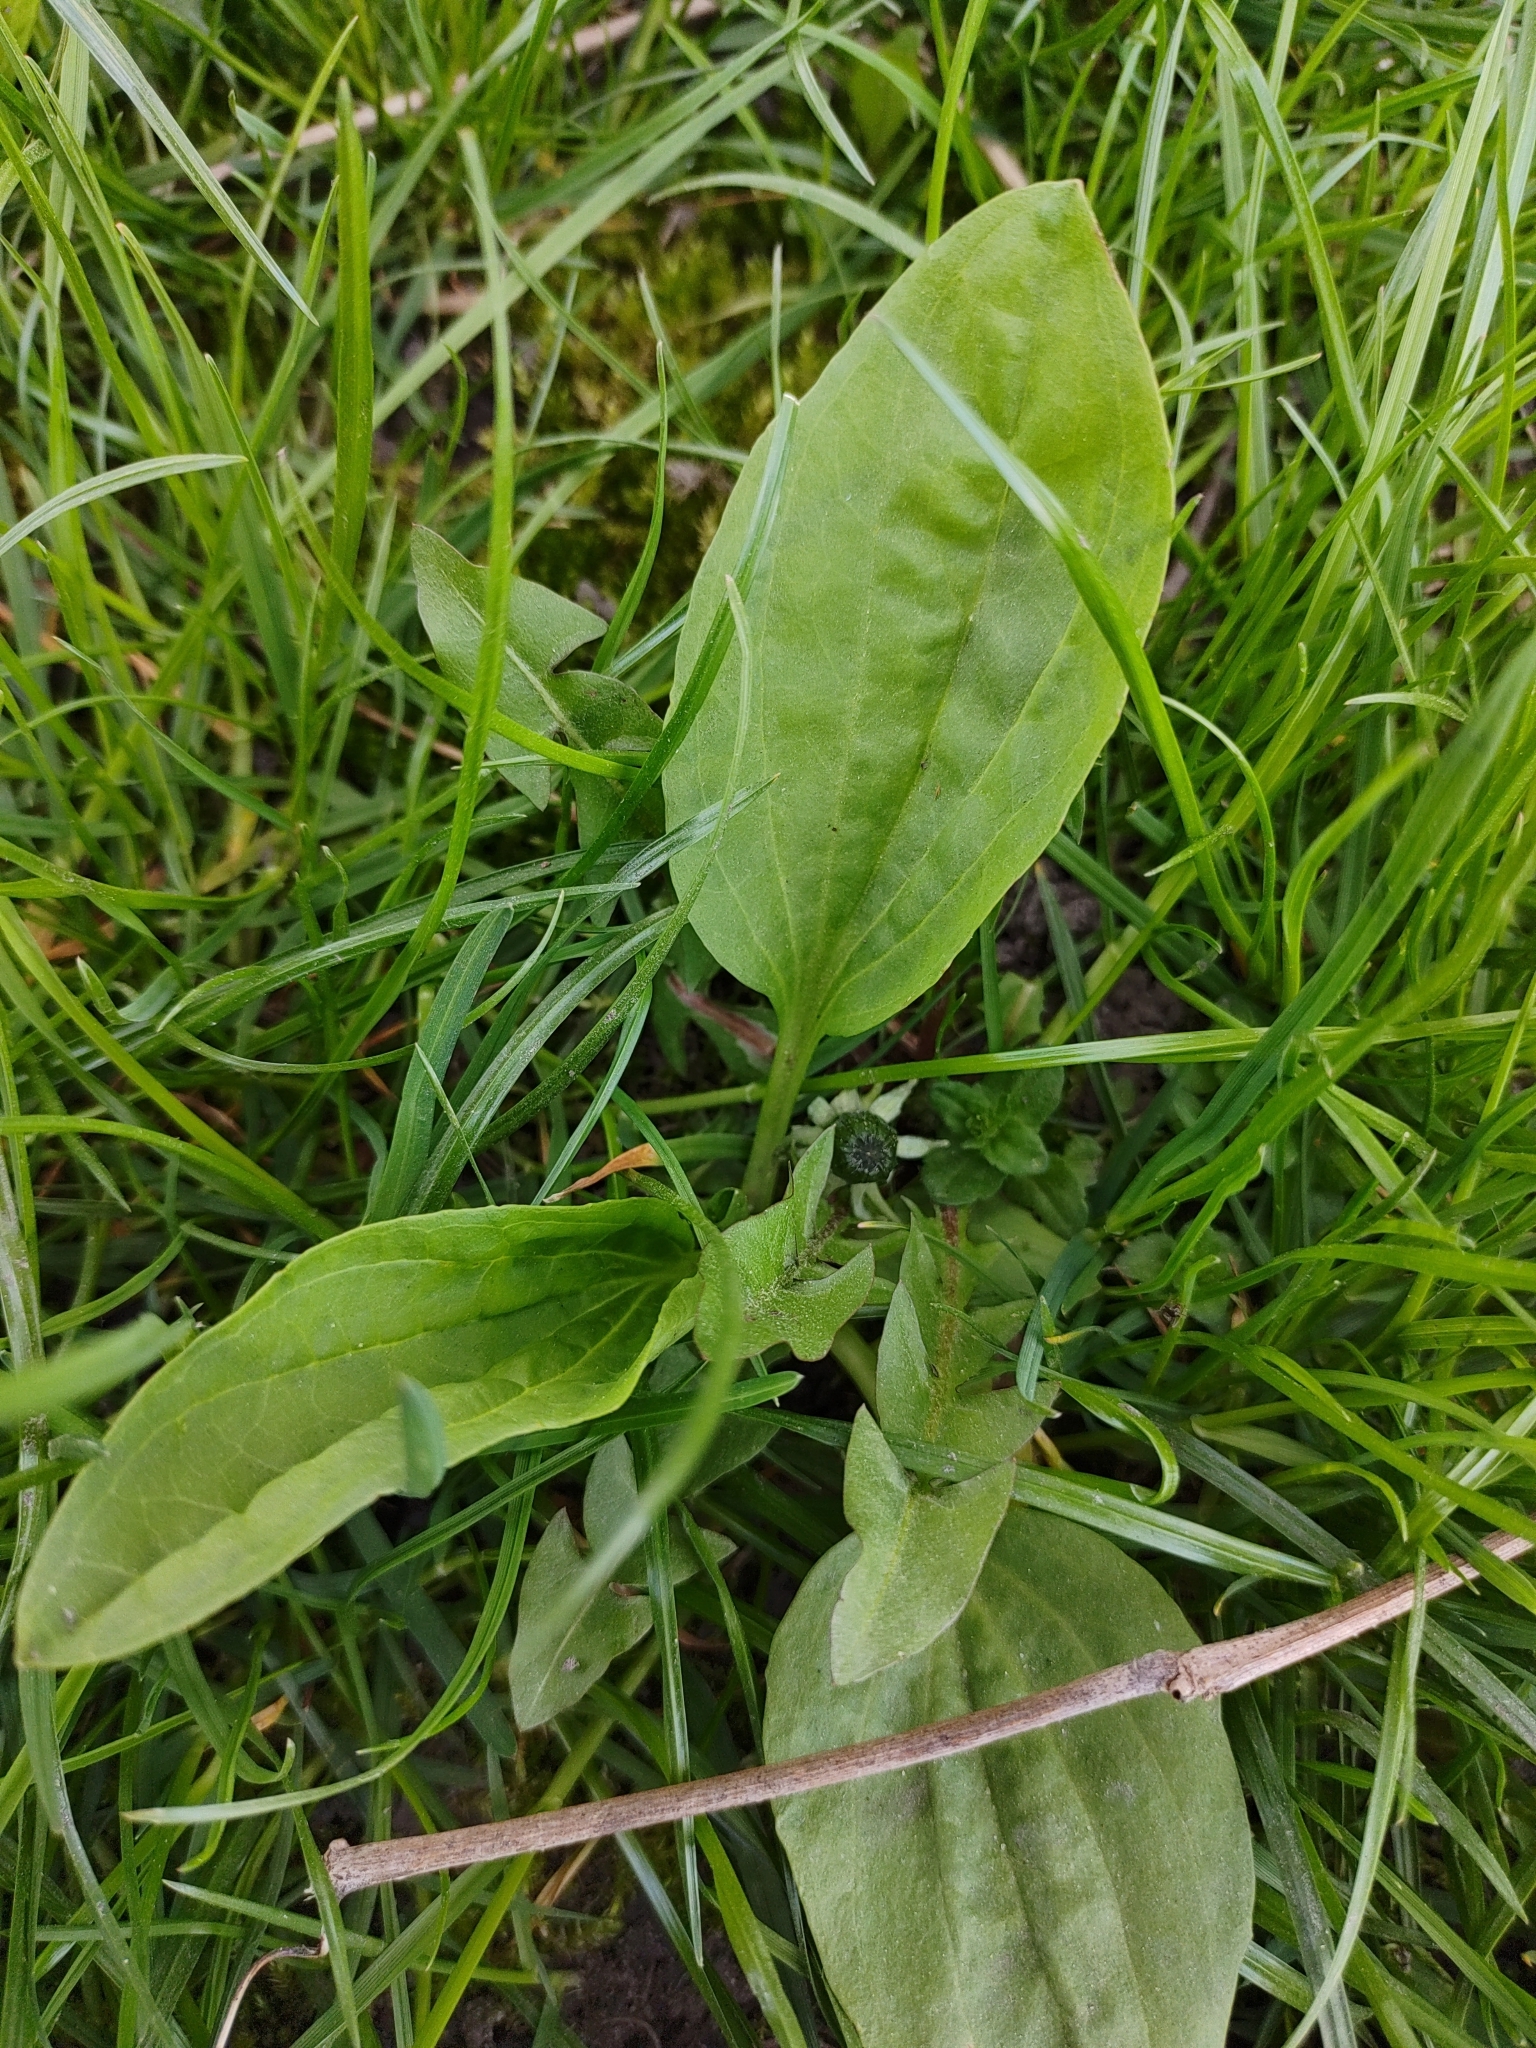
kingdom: Plantae
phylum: Tracheophyta
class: Magnoliopsida
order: Lamiales
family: Plantaginaceae
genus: Plantago
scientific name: Plantago major
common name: Common plantain
